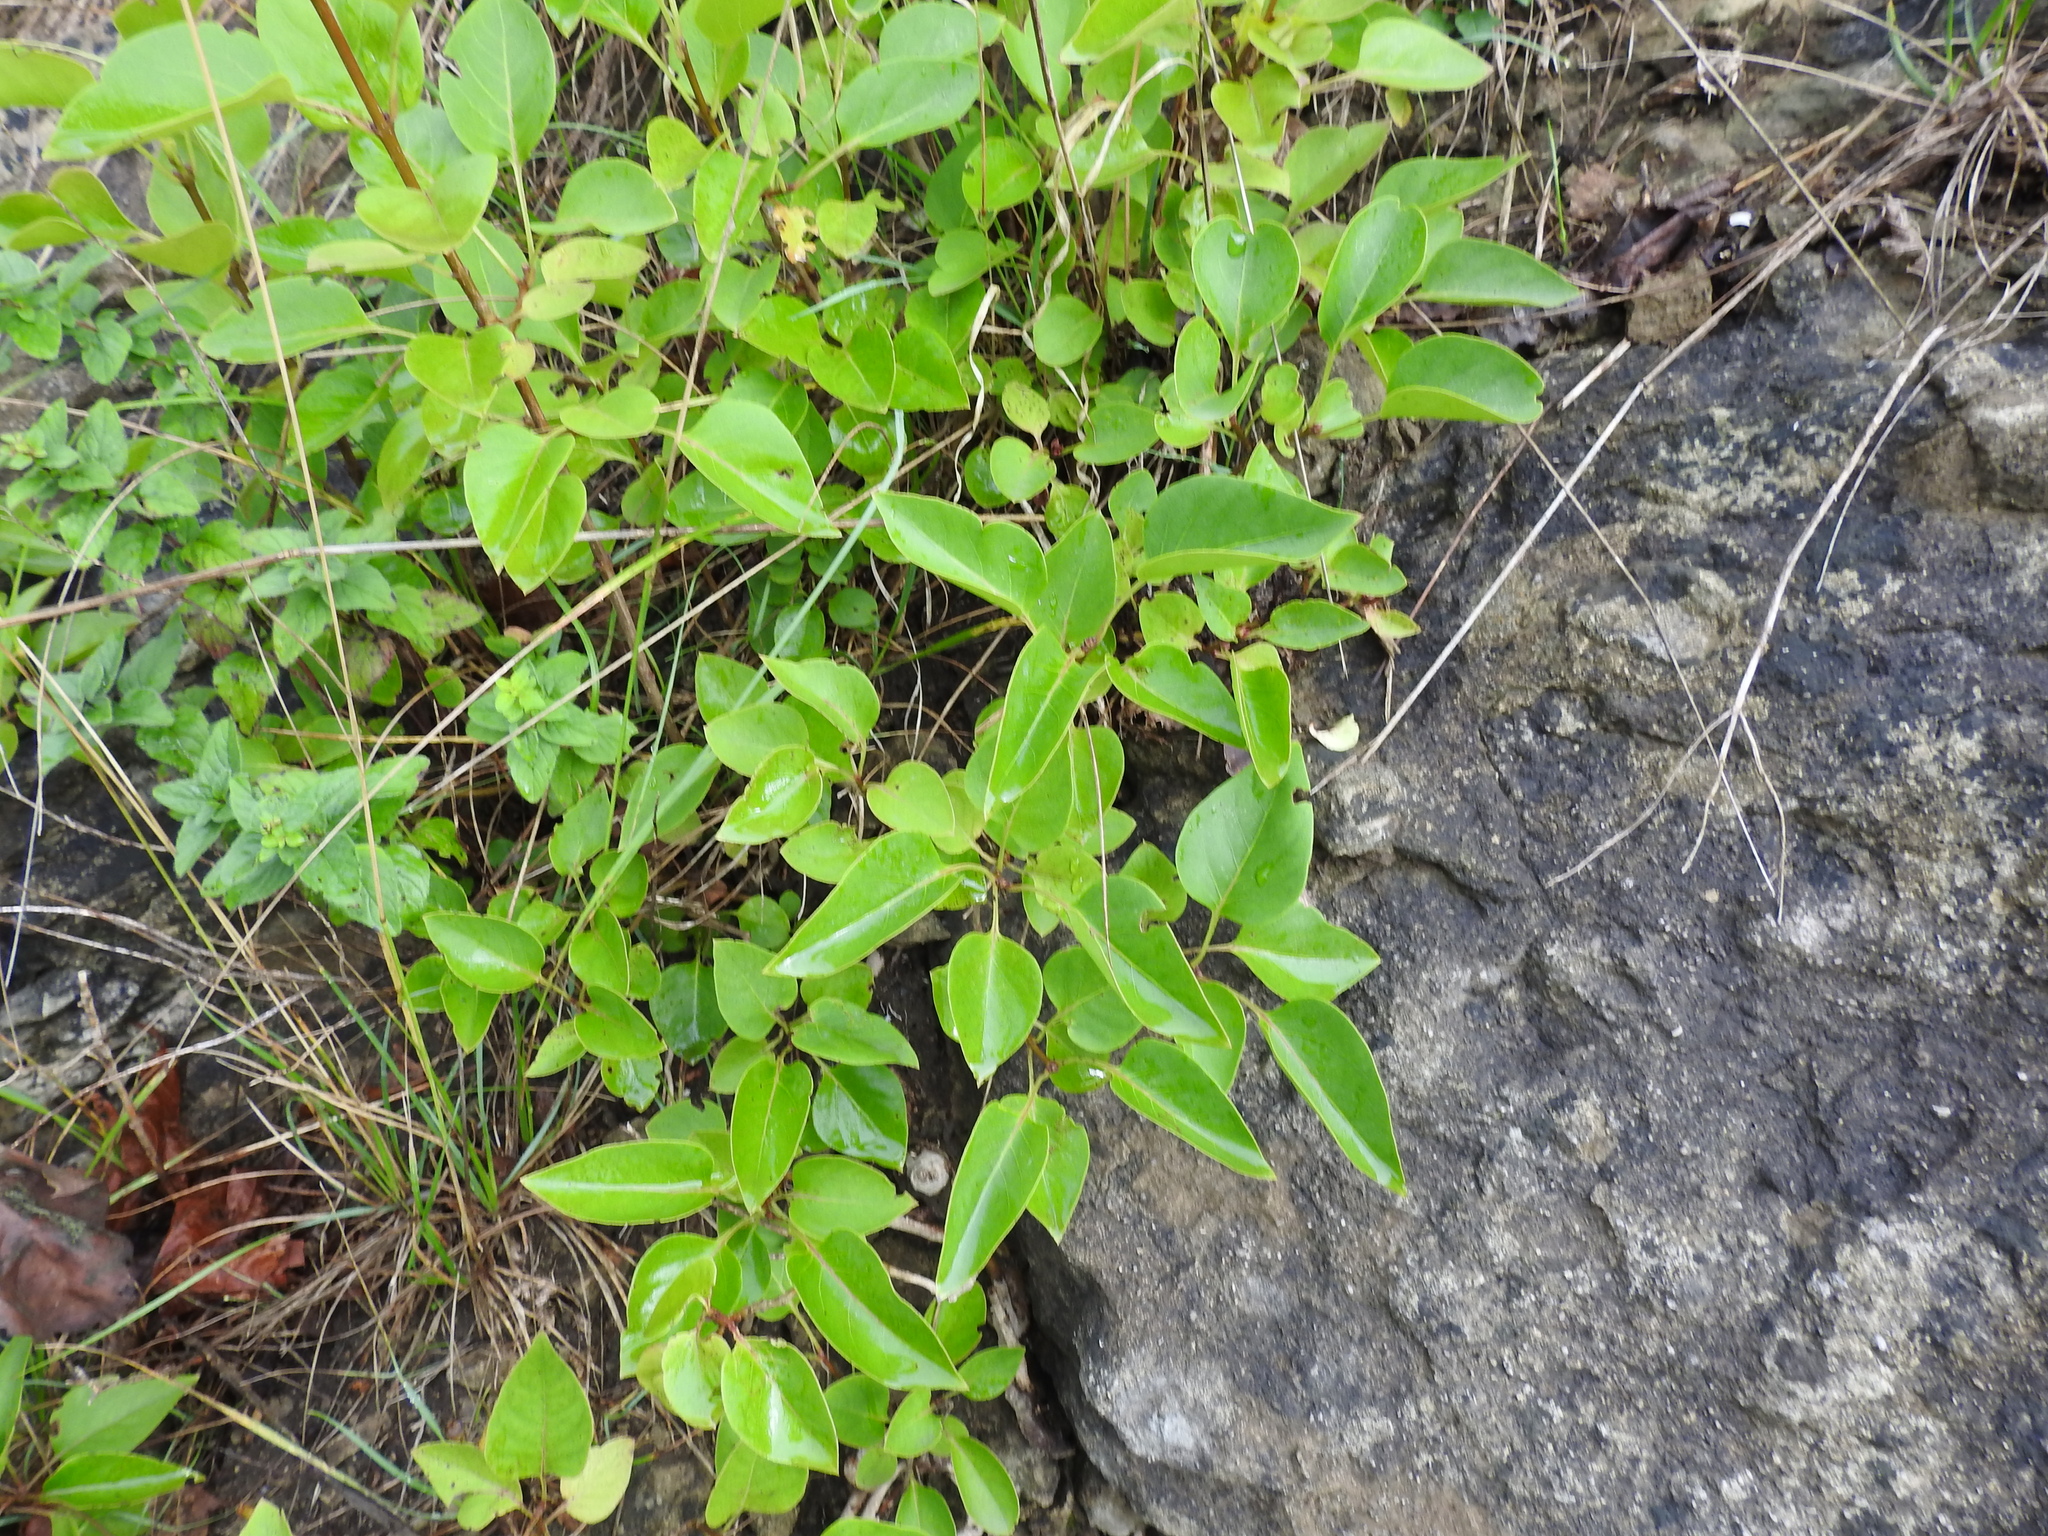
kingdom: Plantae
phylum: Tracheophyta
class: Magnoliopsida
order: Lamiales
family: Oleaceae
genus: Syringa
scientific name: Syringa vulgaris
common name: Common lilac
